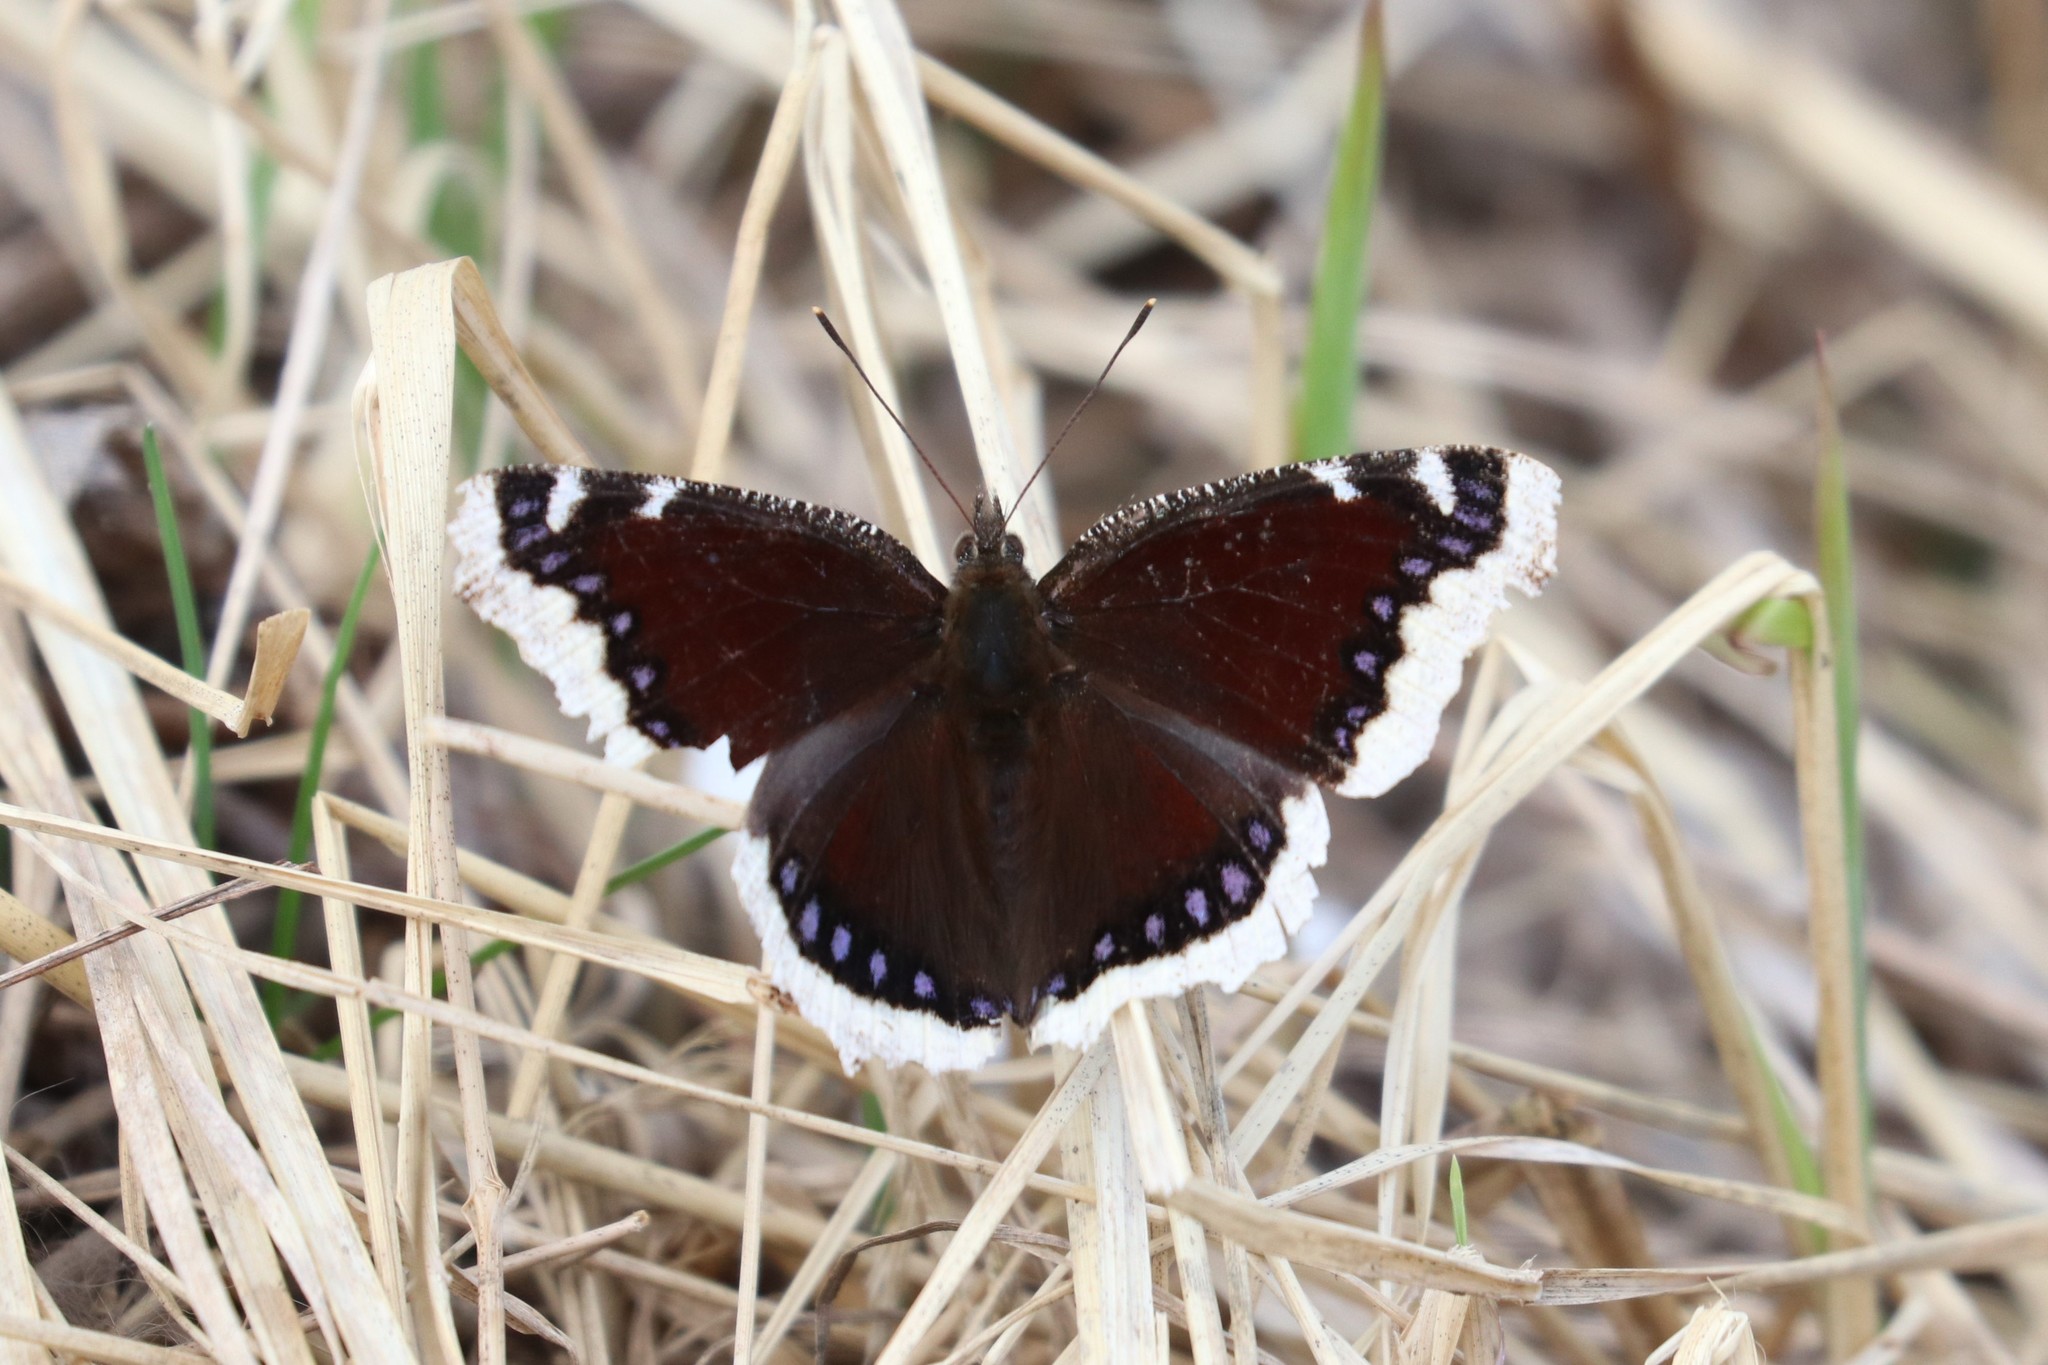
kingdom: Animalia
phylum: Arthropoda
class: Insecta
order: Lepidoptera
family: Nymphalidae
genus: Nymphalis
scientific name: Nymphalis antiopa
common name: Camberwell beauty
